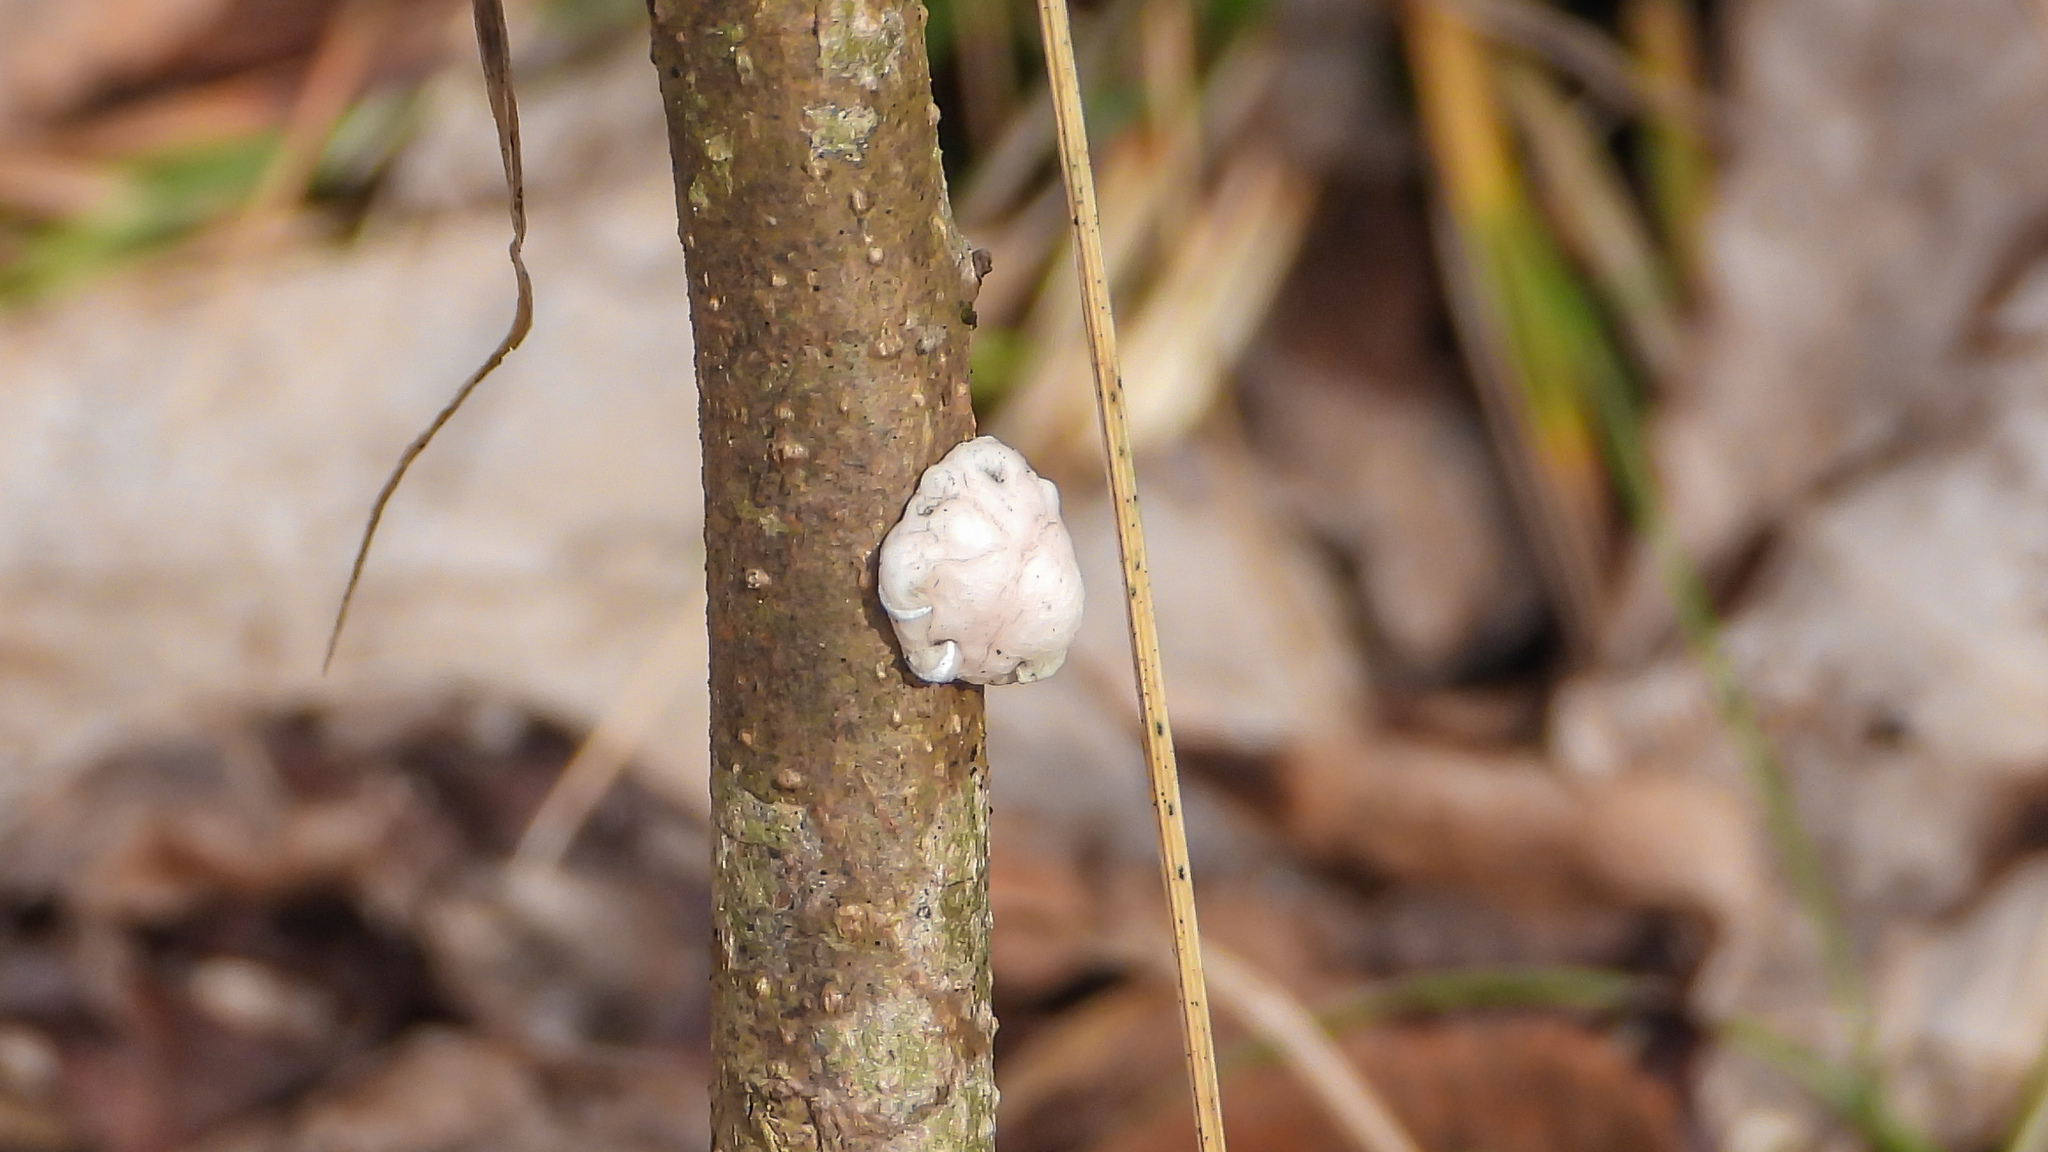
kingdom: Animalia
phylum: Arthropoda
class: Insecta
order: Hemiptera
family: Coccidae
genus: Ceroplastes
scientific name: Ceroplastes ceriferus
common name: Indian wax scale
